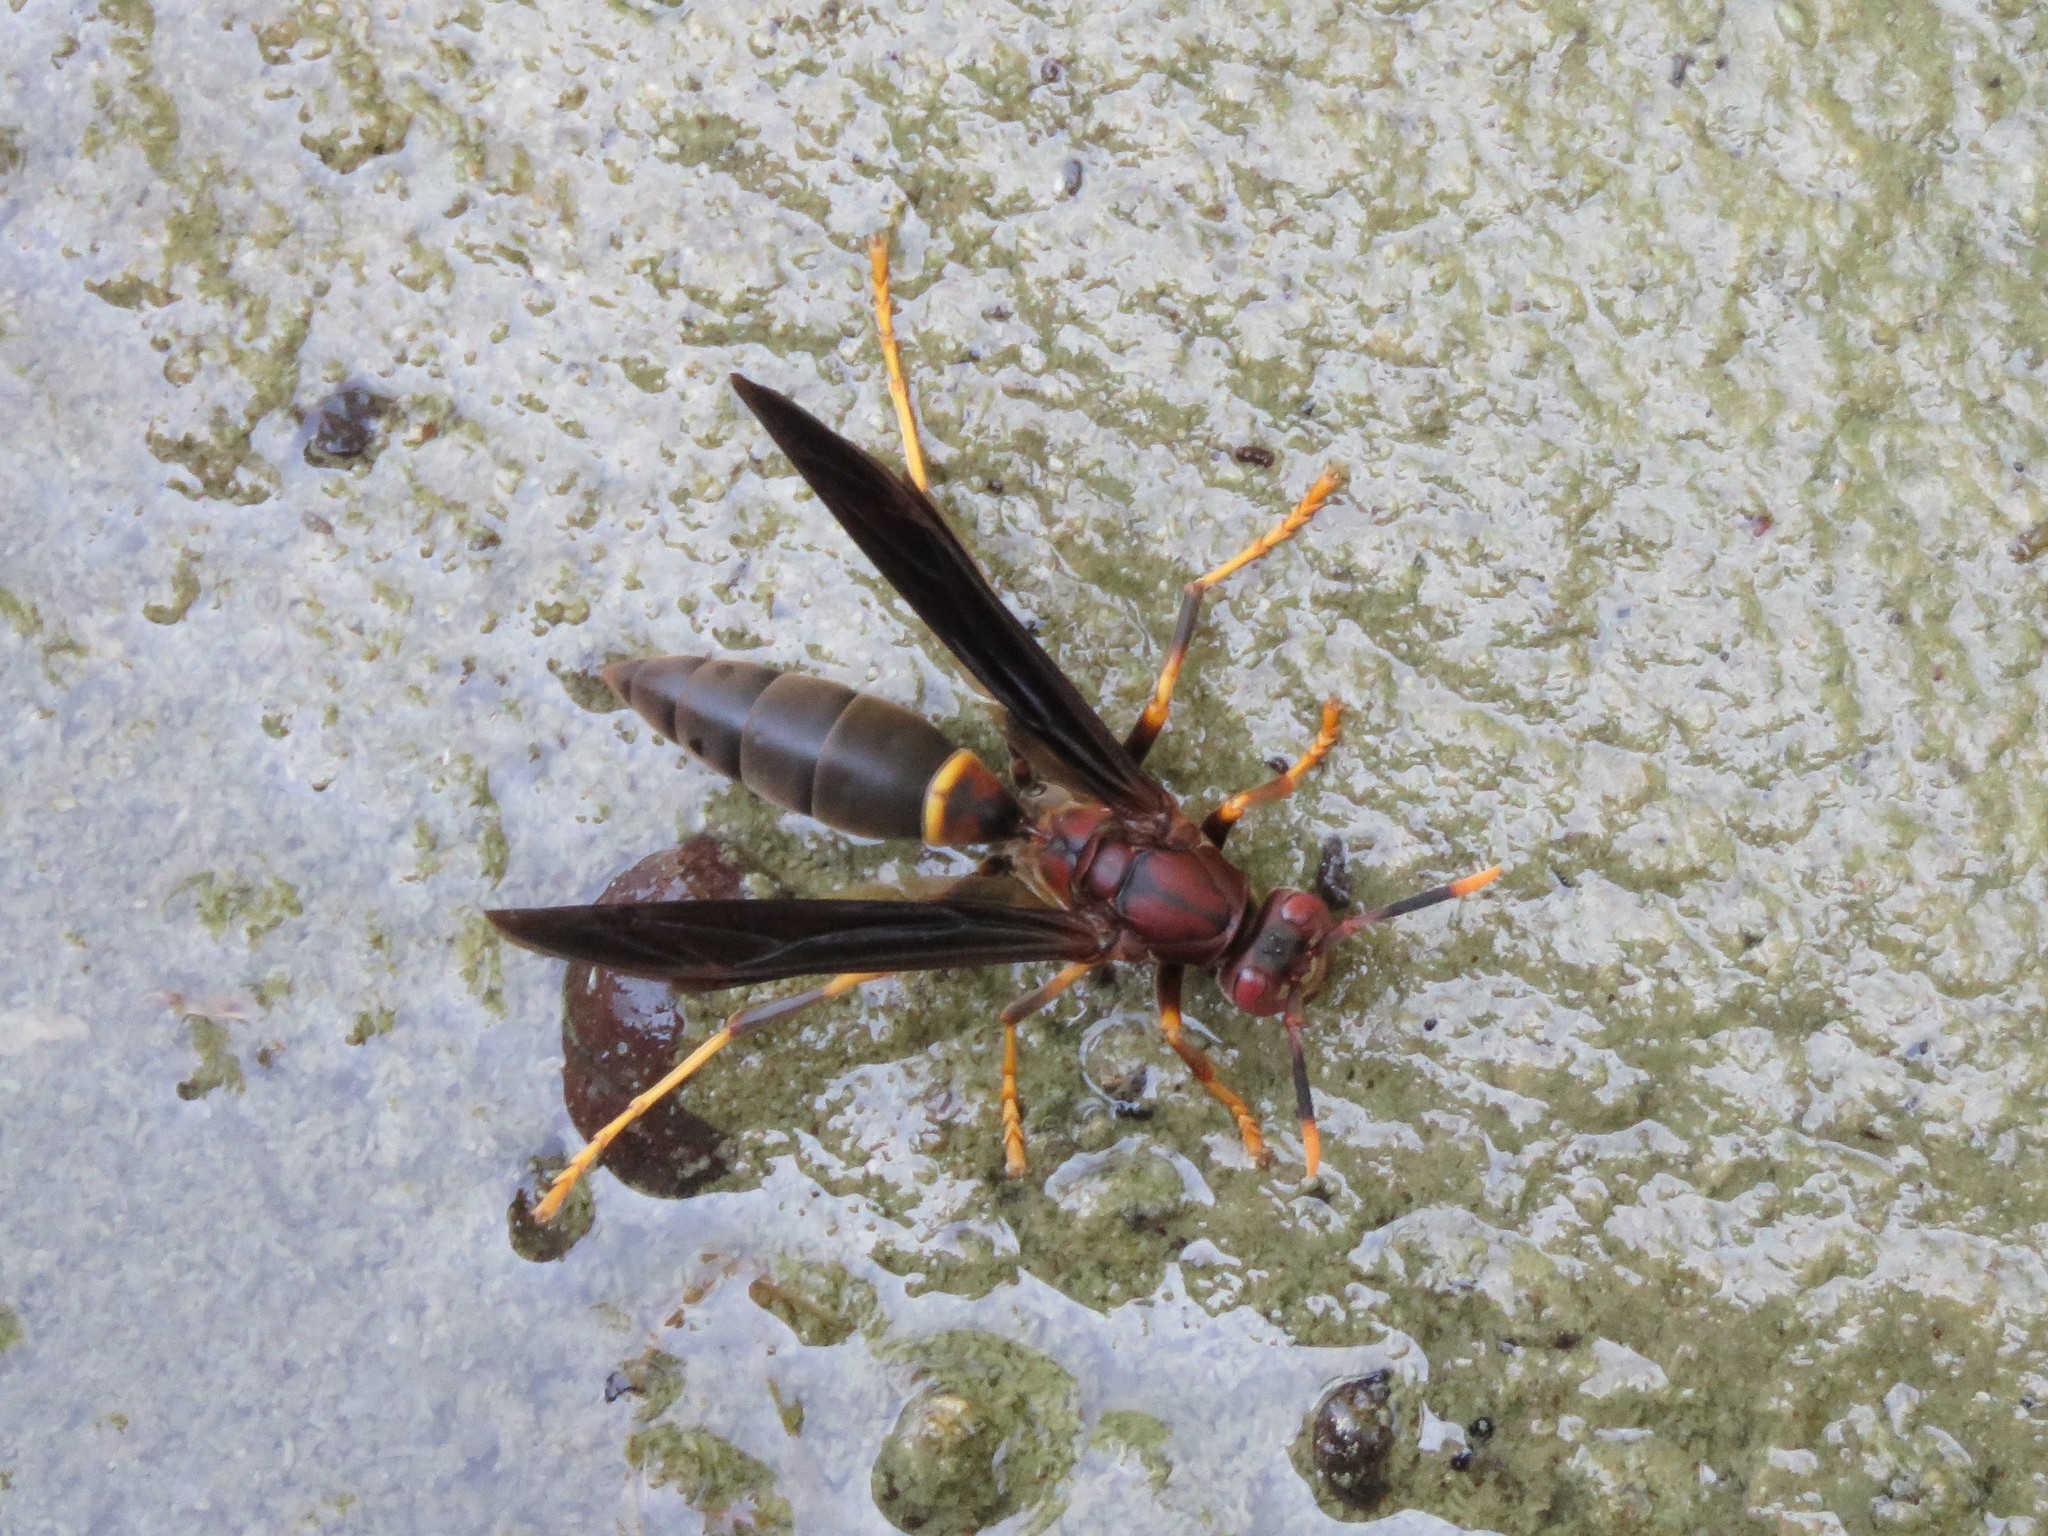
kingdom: Animalia
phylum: Arthropoda
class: Insecta
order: Hymenoptera
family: Eumenidae
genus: Polistes
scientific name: Polistes annularis
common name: Ringed paper wasp
